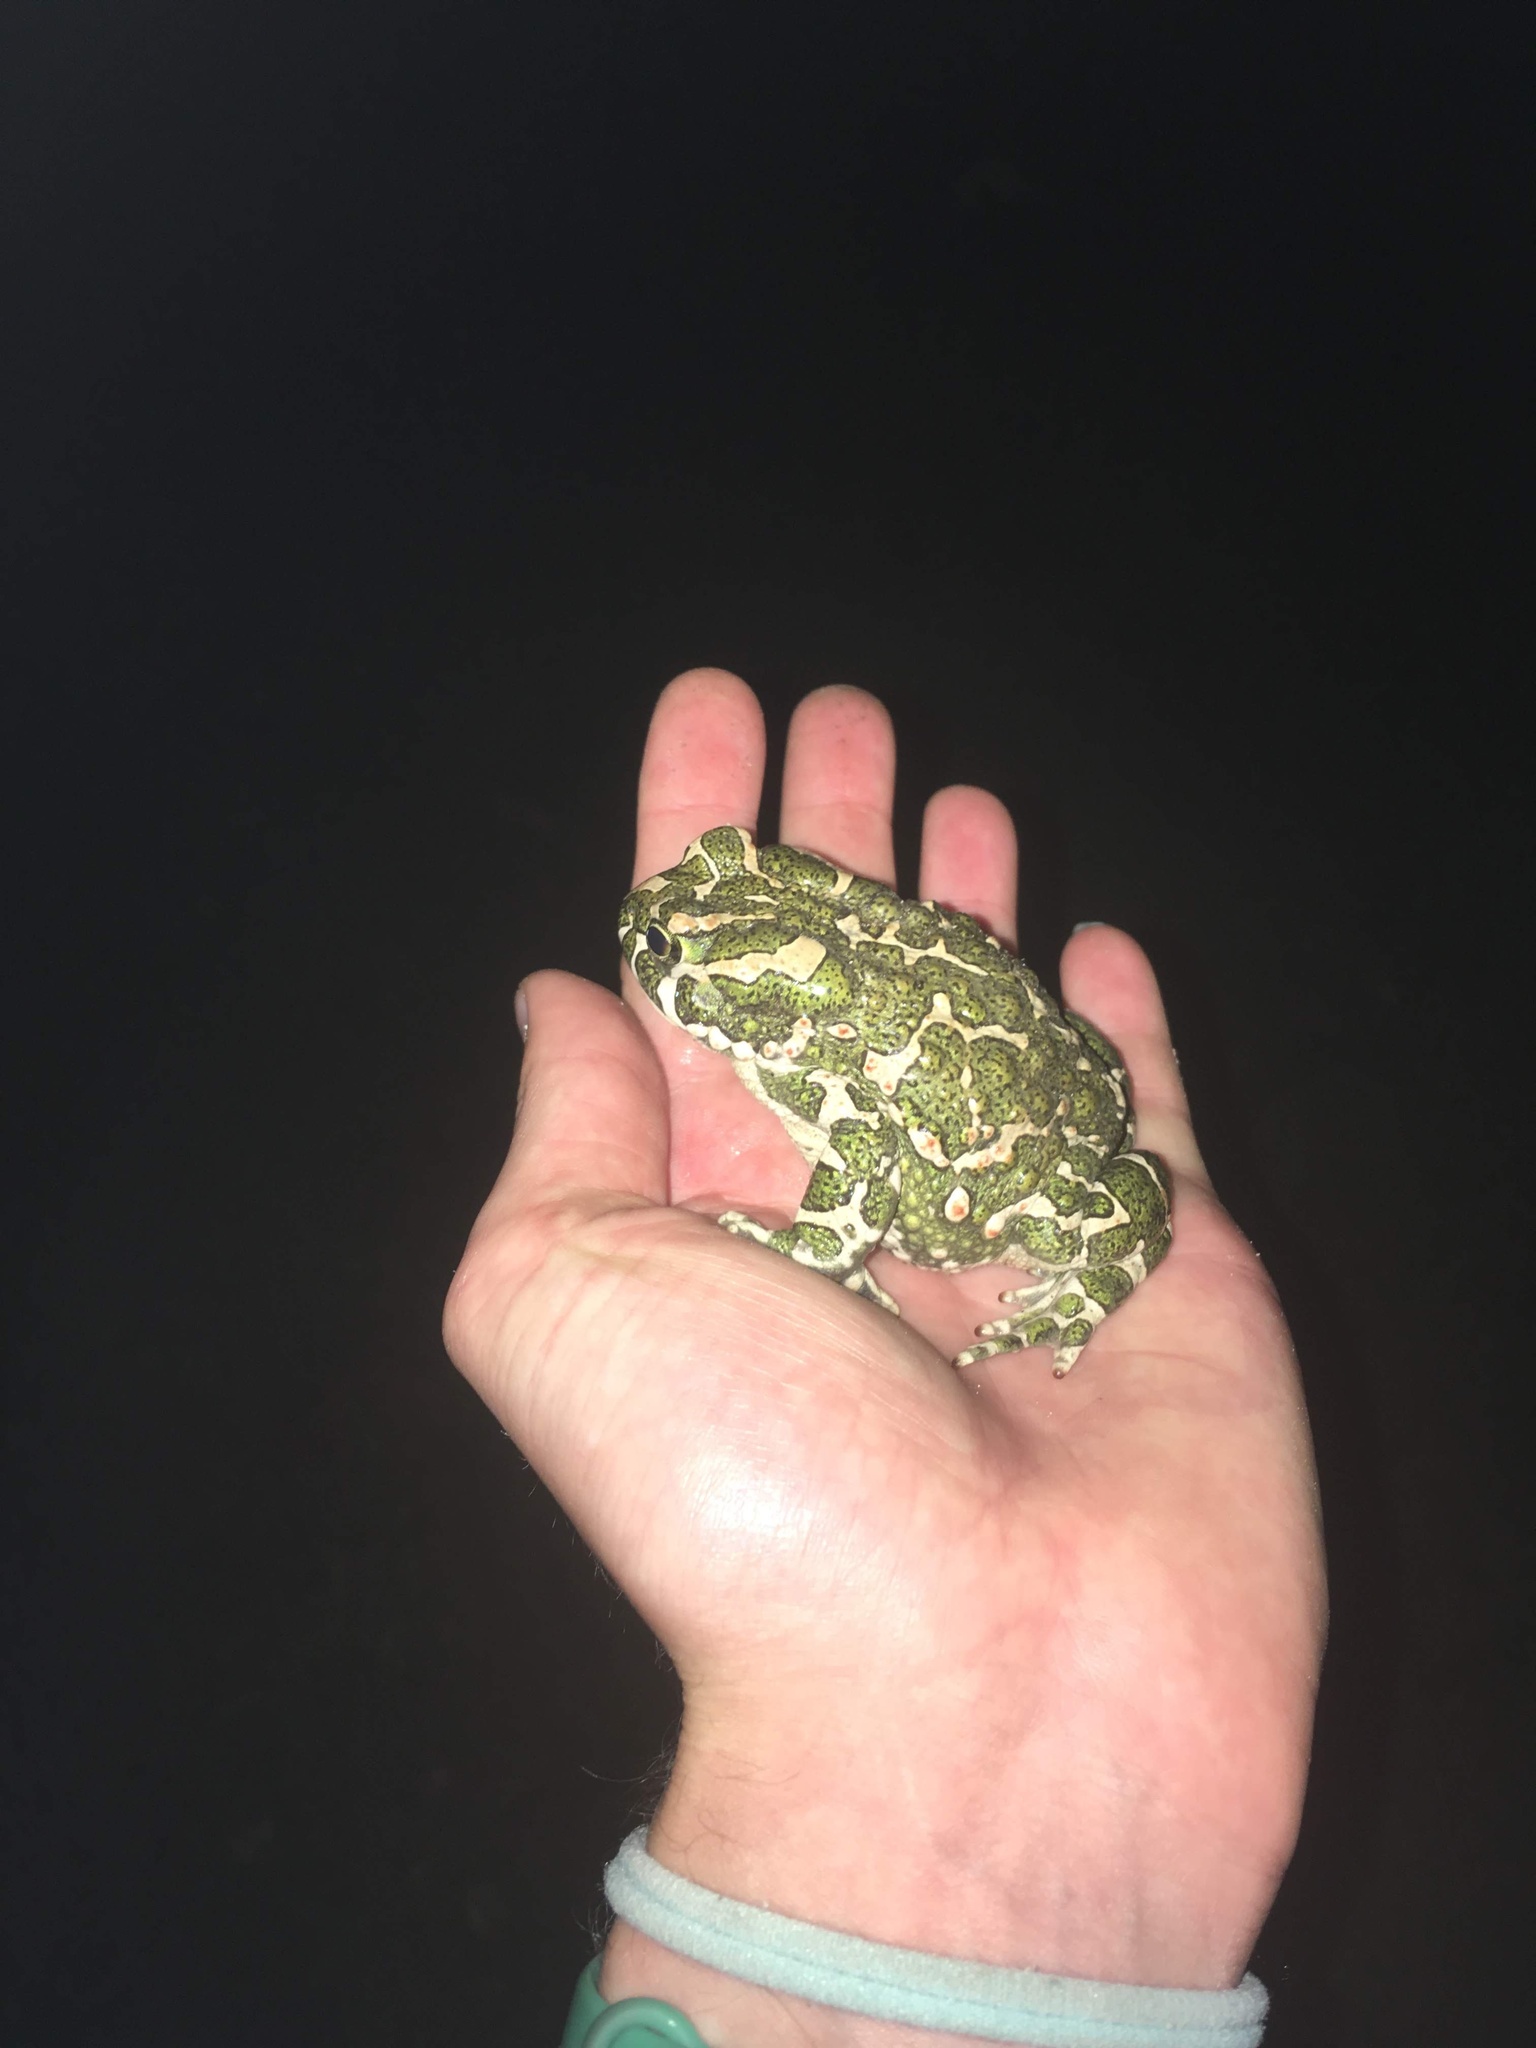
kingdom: Animalia
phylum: Chordata
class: Amphibia
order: Anura
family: Bufonidae
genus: Bufotes
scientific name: Bufotes viridis
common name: European green toad
